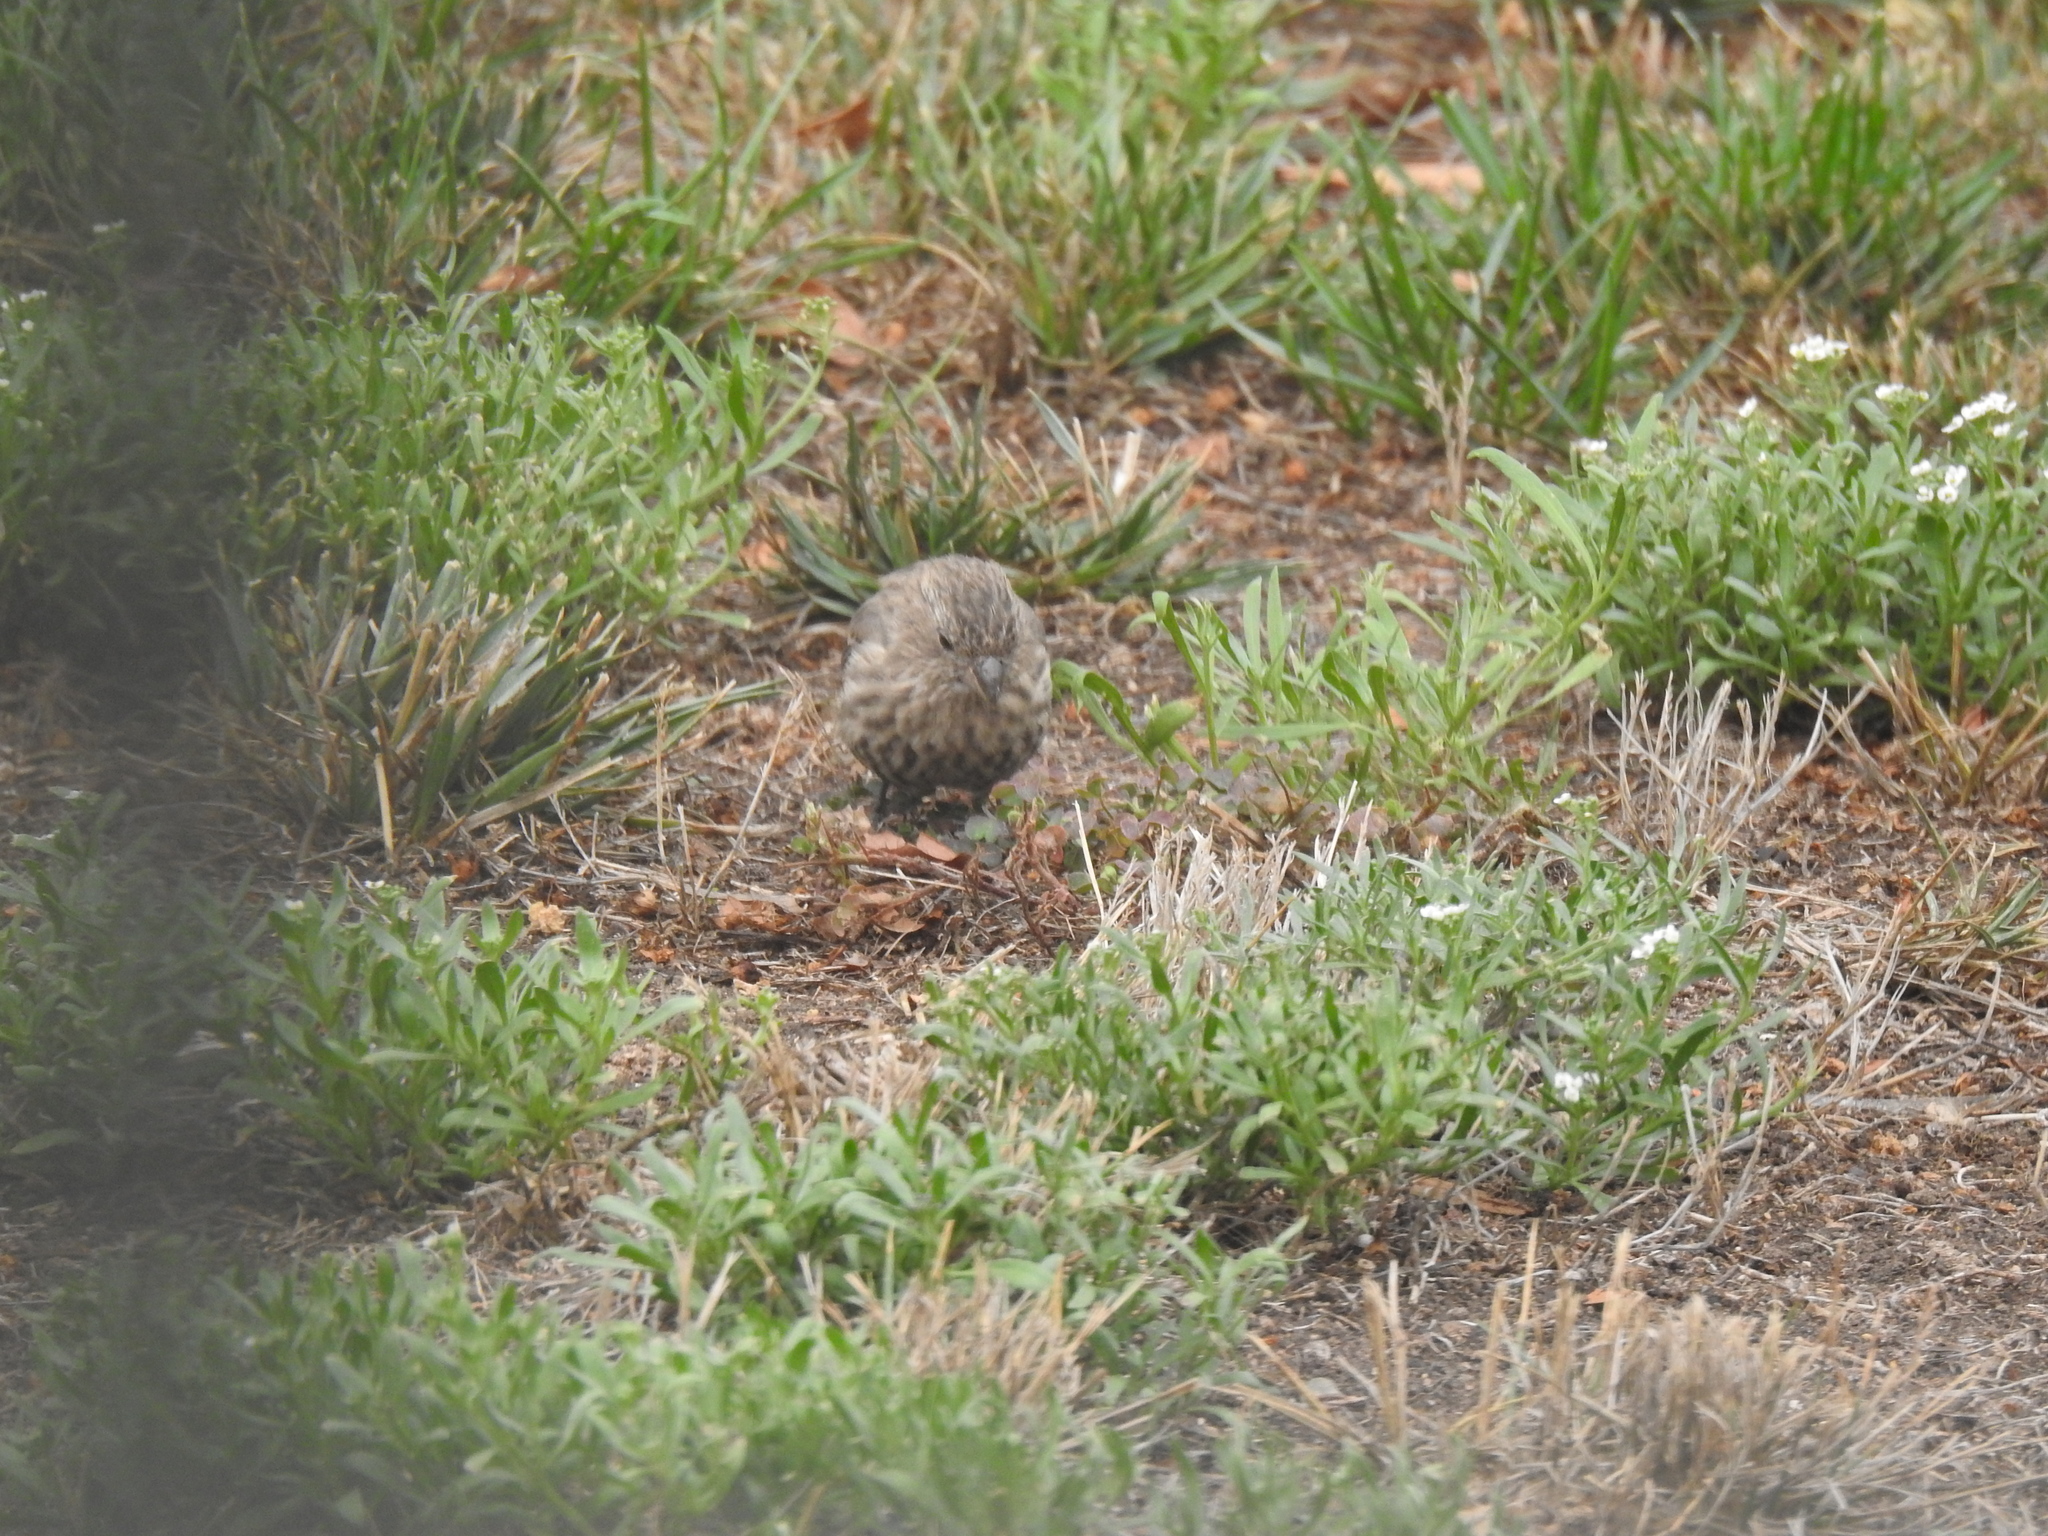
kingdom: Animalia
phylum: Chordata
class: Aves
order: Passeriformes
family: Fringillidae
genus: Haemorhous
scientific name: Haemorhous mexicanus
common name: House finch
